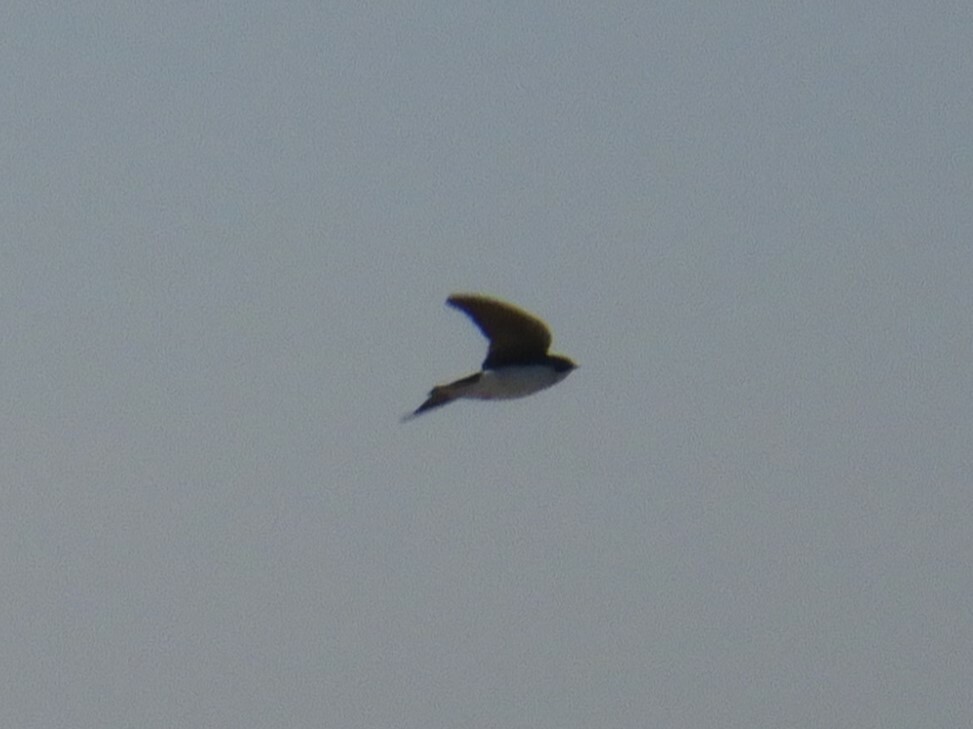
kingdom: Animalia
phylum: Chordata
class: Aves
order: Passeriformes
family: Hirundinidae
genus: Tachycineta
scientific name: Tachycineta bicolor
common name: Tree swallow
